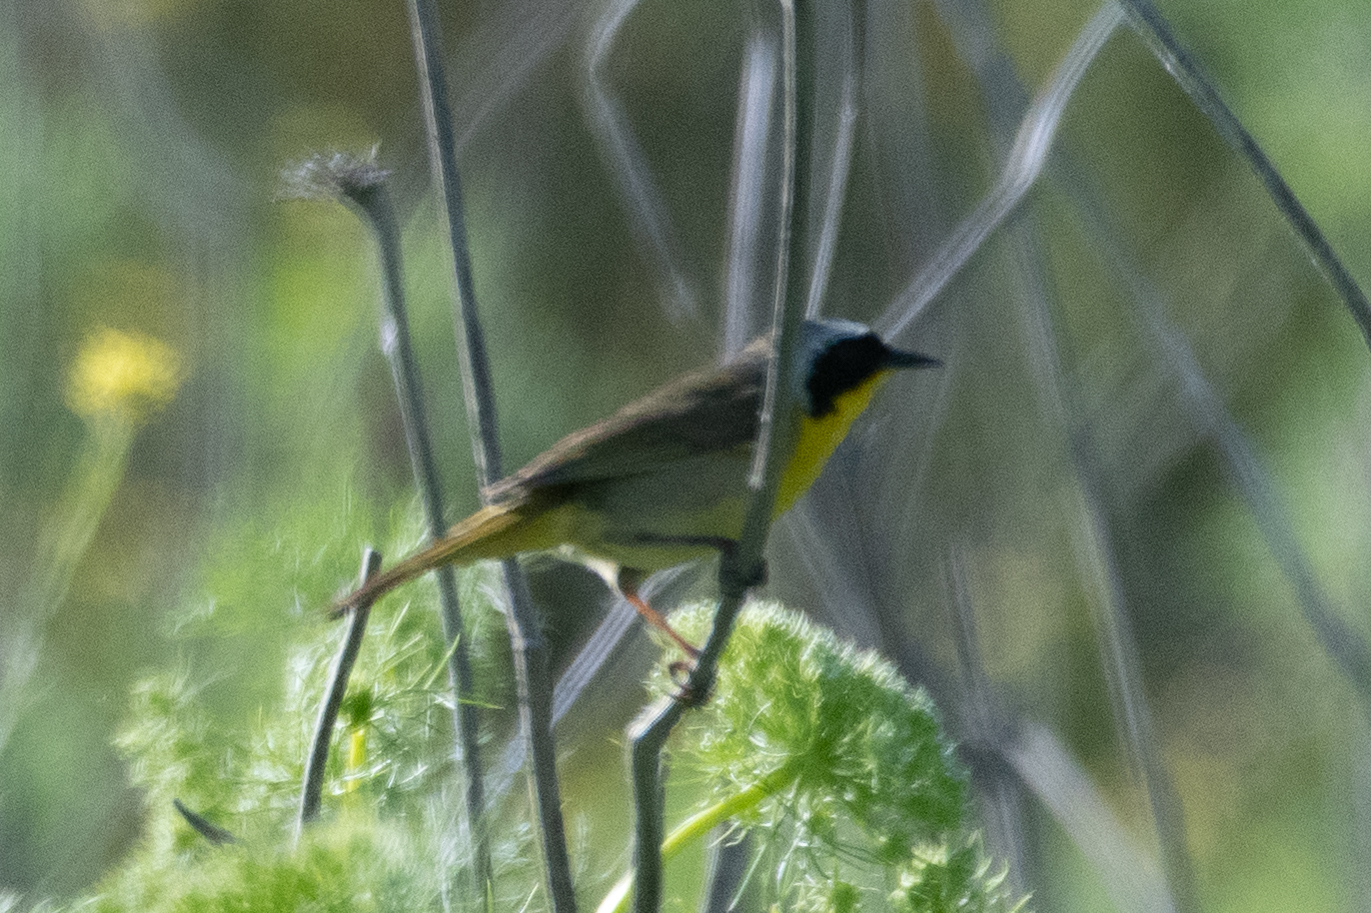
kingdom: Animalia
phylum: Chordata
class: Aves
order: Passeriformes
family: Parulidae
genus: Geothlypis
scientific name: Geothlypis trichas
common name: Common yellowthroat
